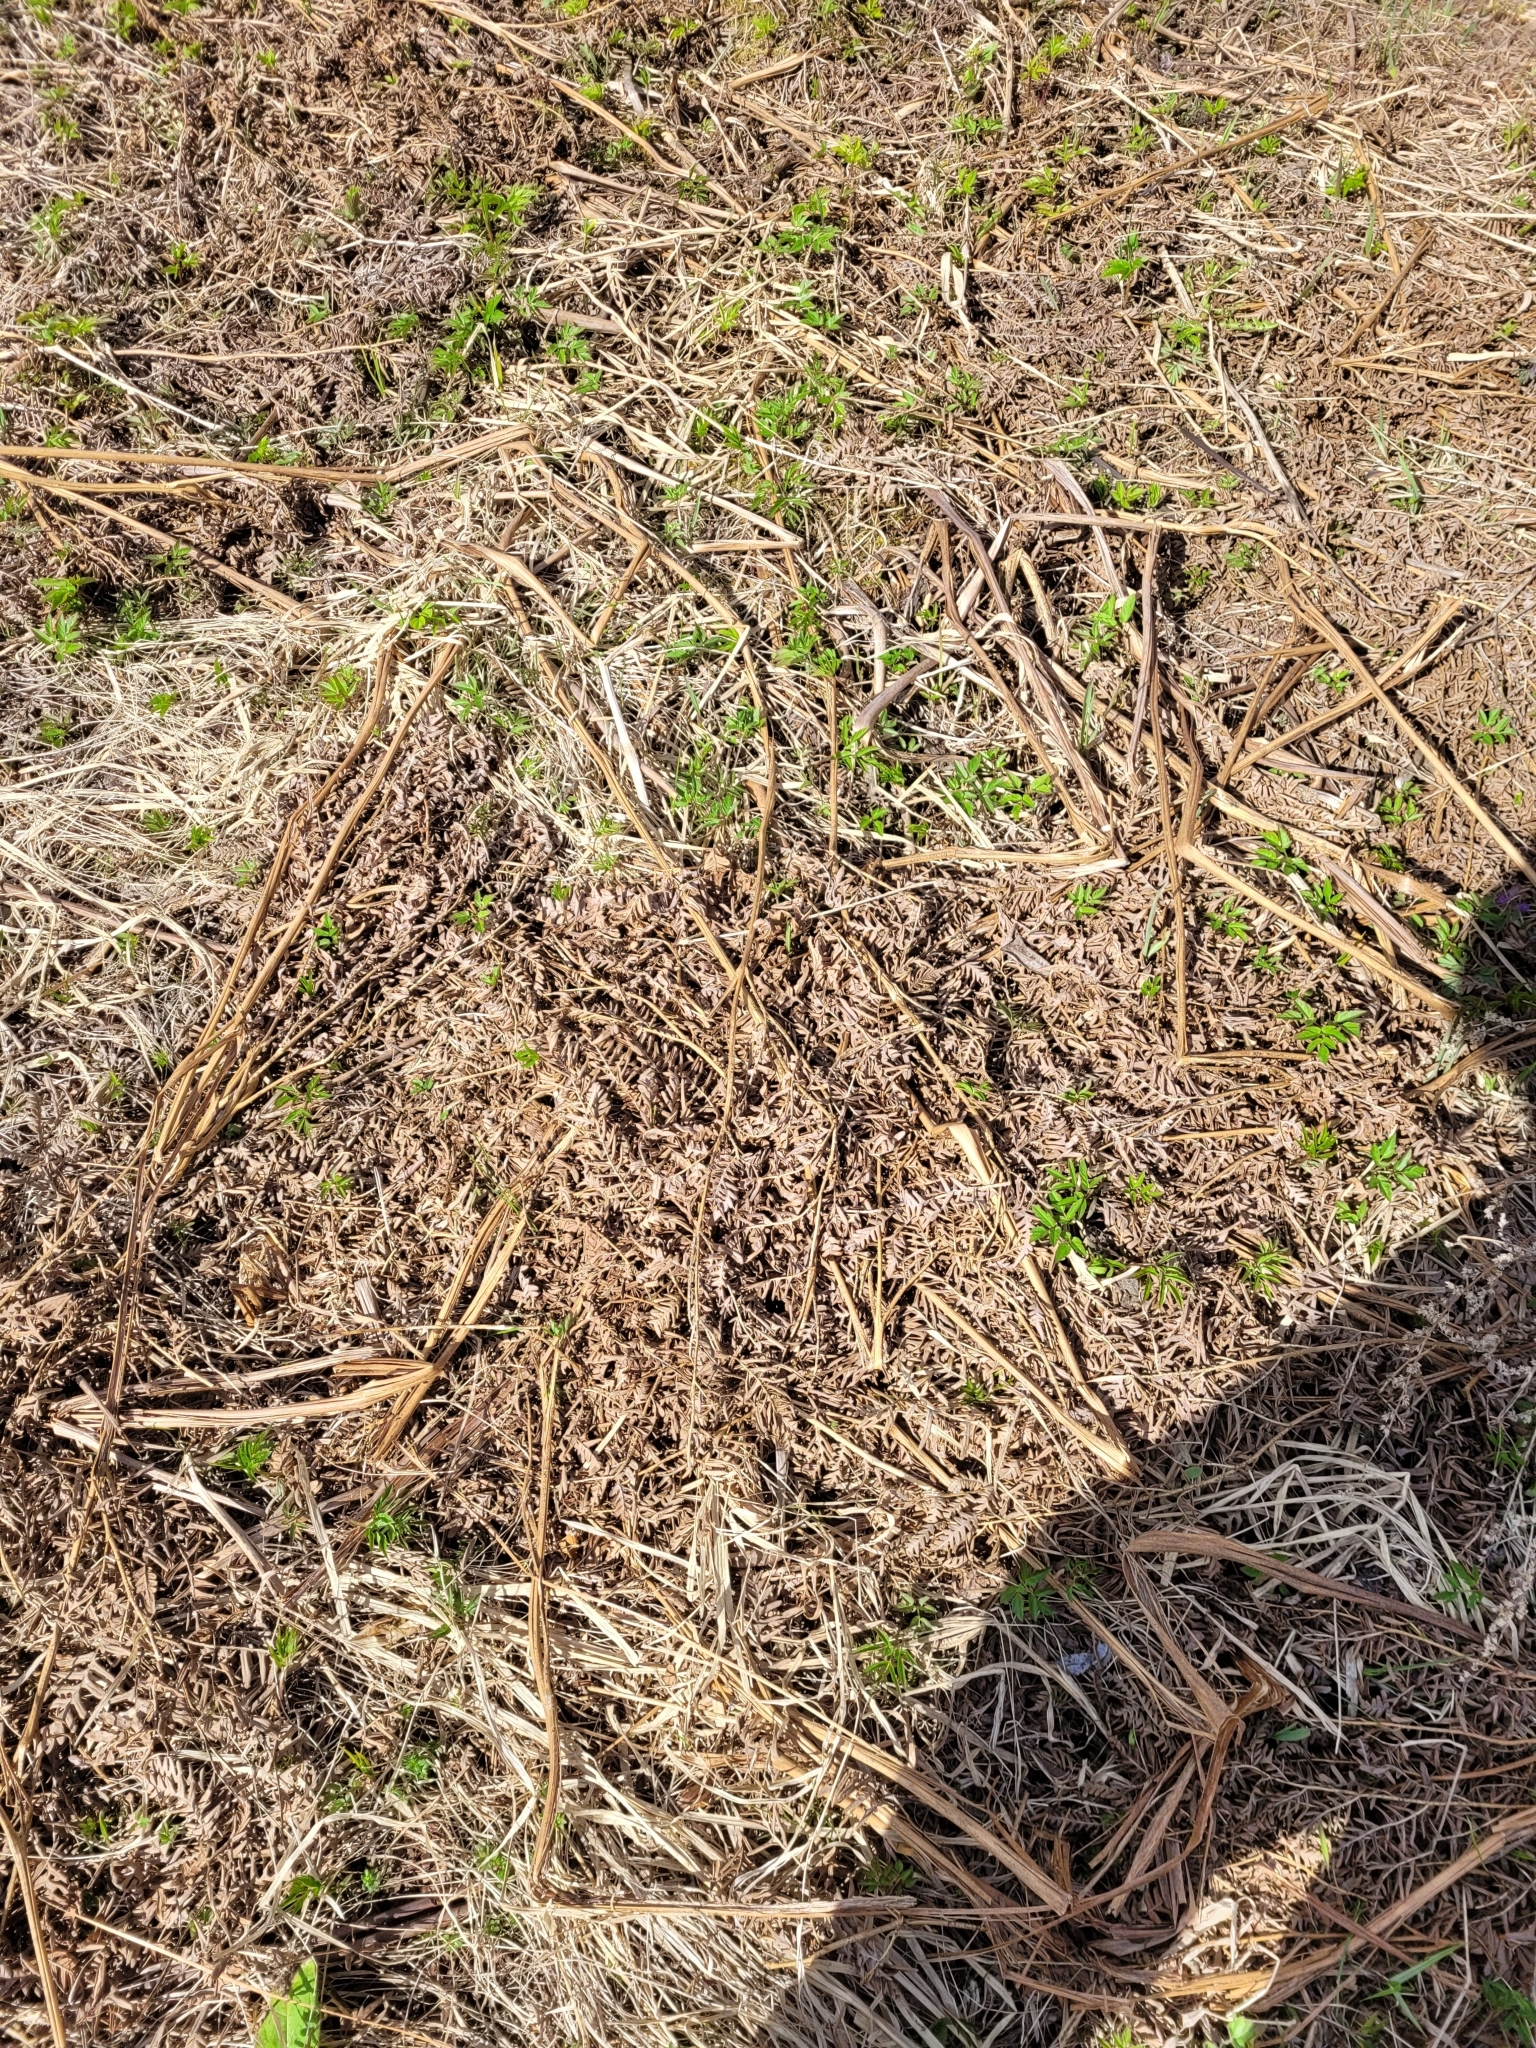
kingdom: Plantae
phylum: Tracheophyta
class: Polypodiopsida
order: Polypodiales
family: Dennstaedtiaceae
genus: Pteridium
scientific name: Pteridium aquilinum
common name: Bracken
